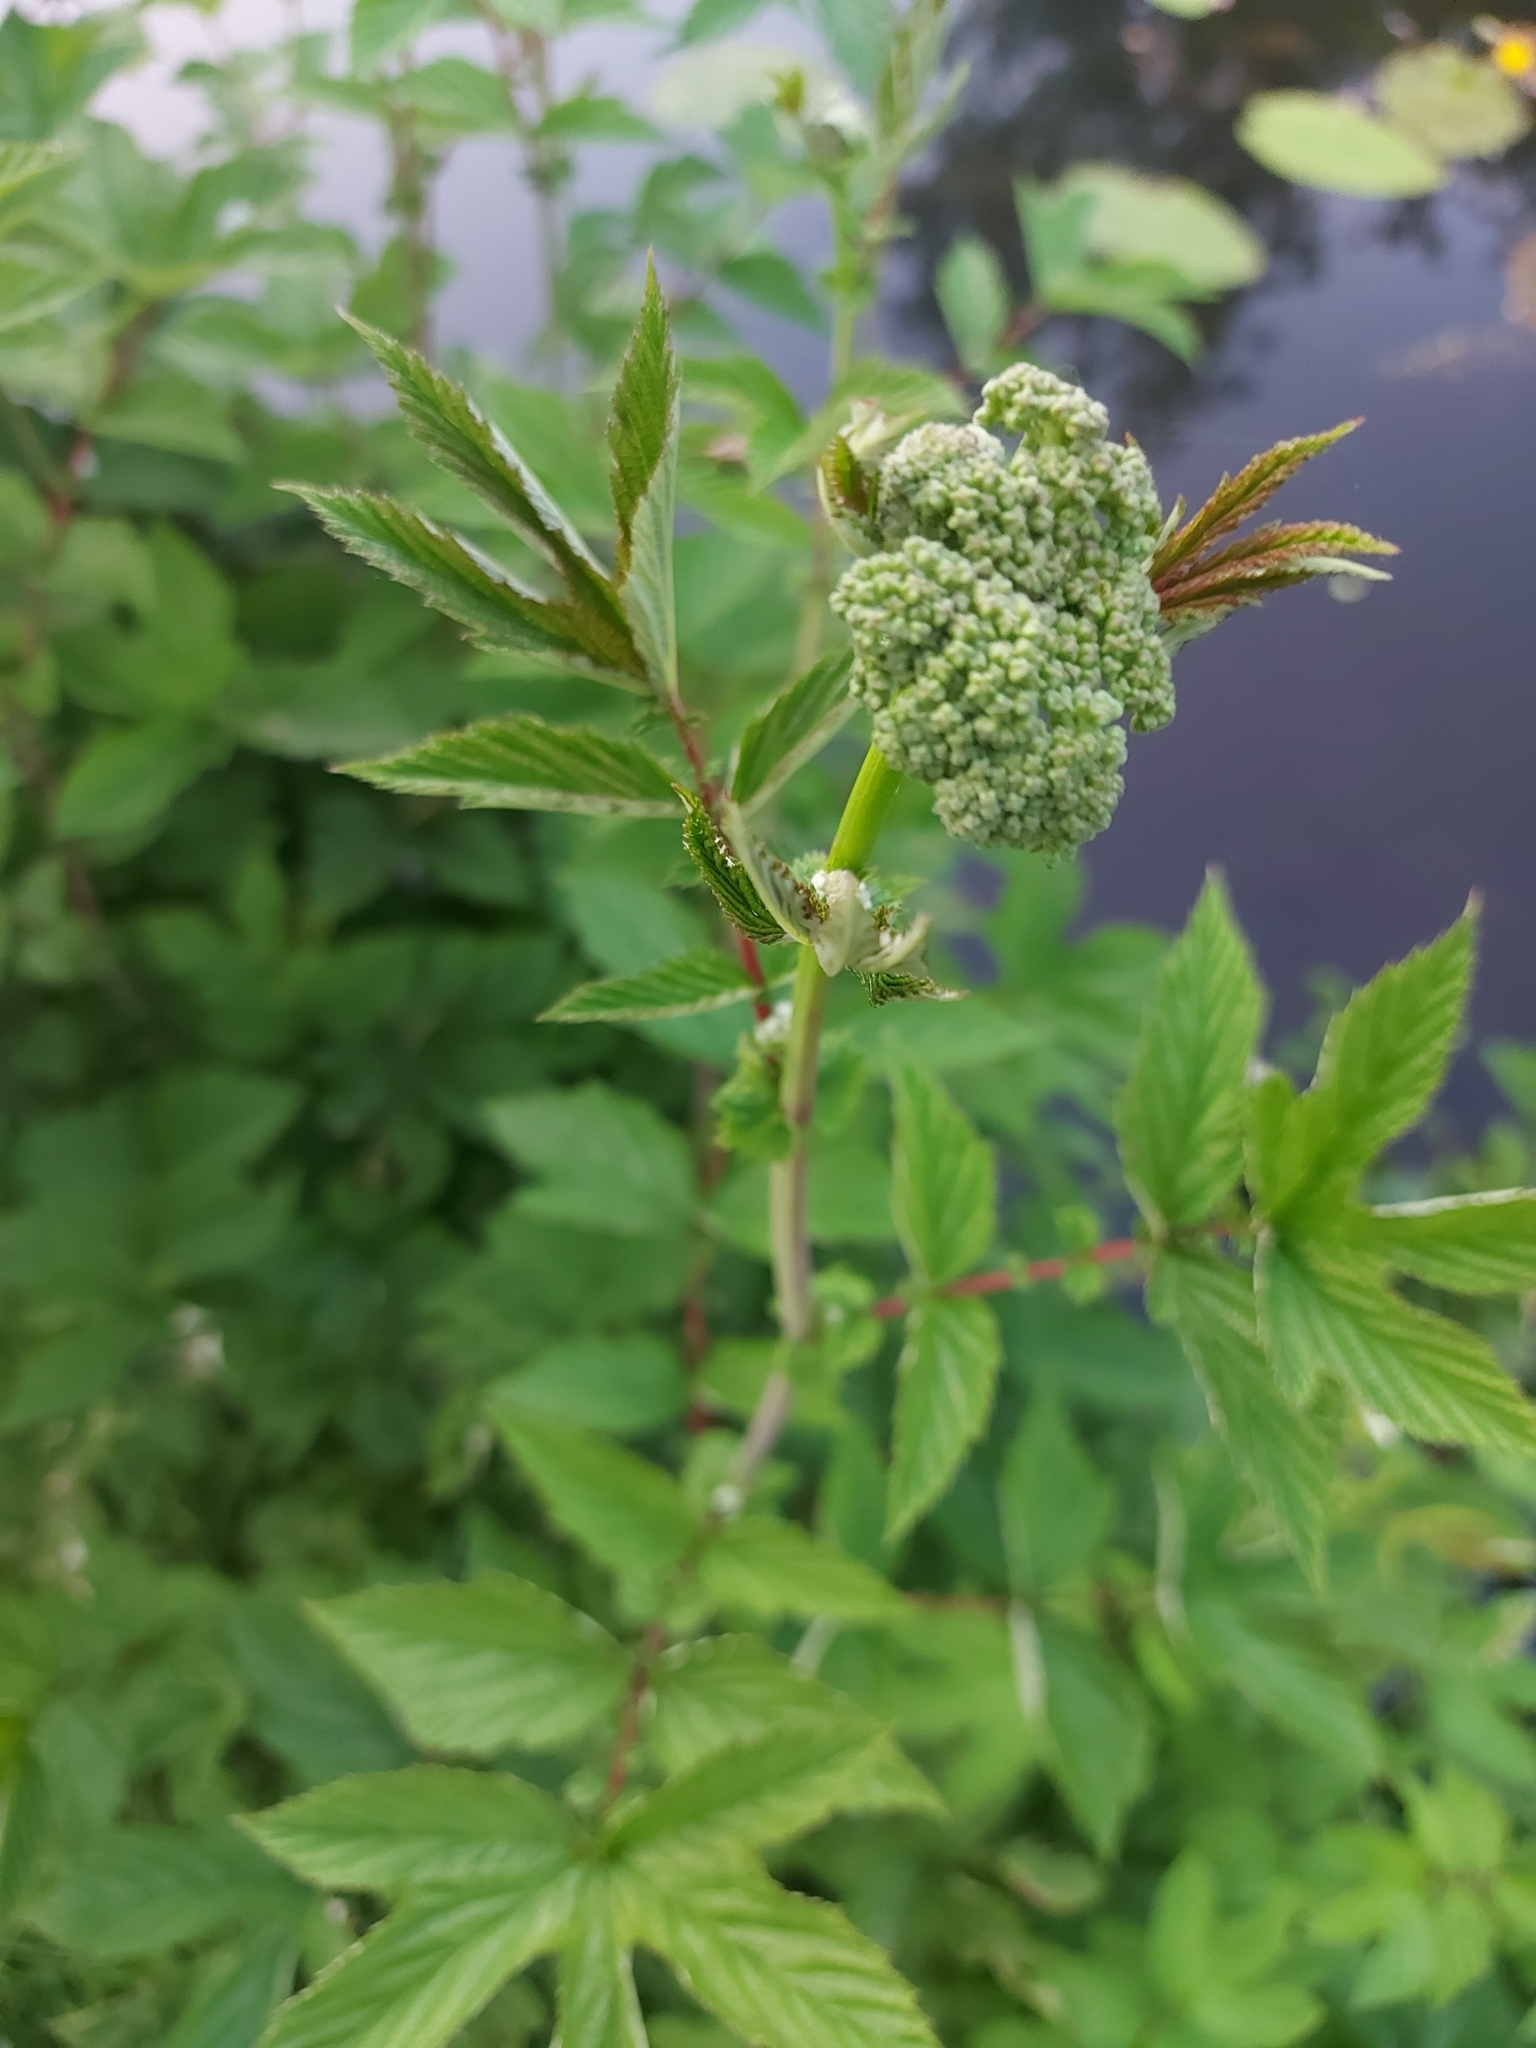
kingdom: Plantae
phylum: Tracheophyta
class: Magnoliopsida
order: Rosales
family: Rosaceae
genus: Filipendula
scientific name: Filipendula ulmaria
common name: Meadowsweet
